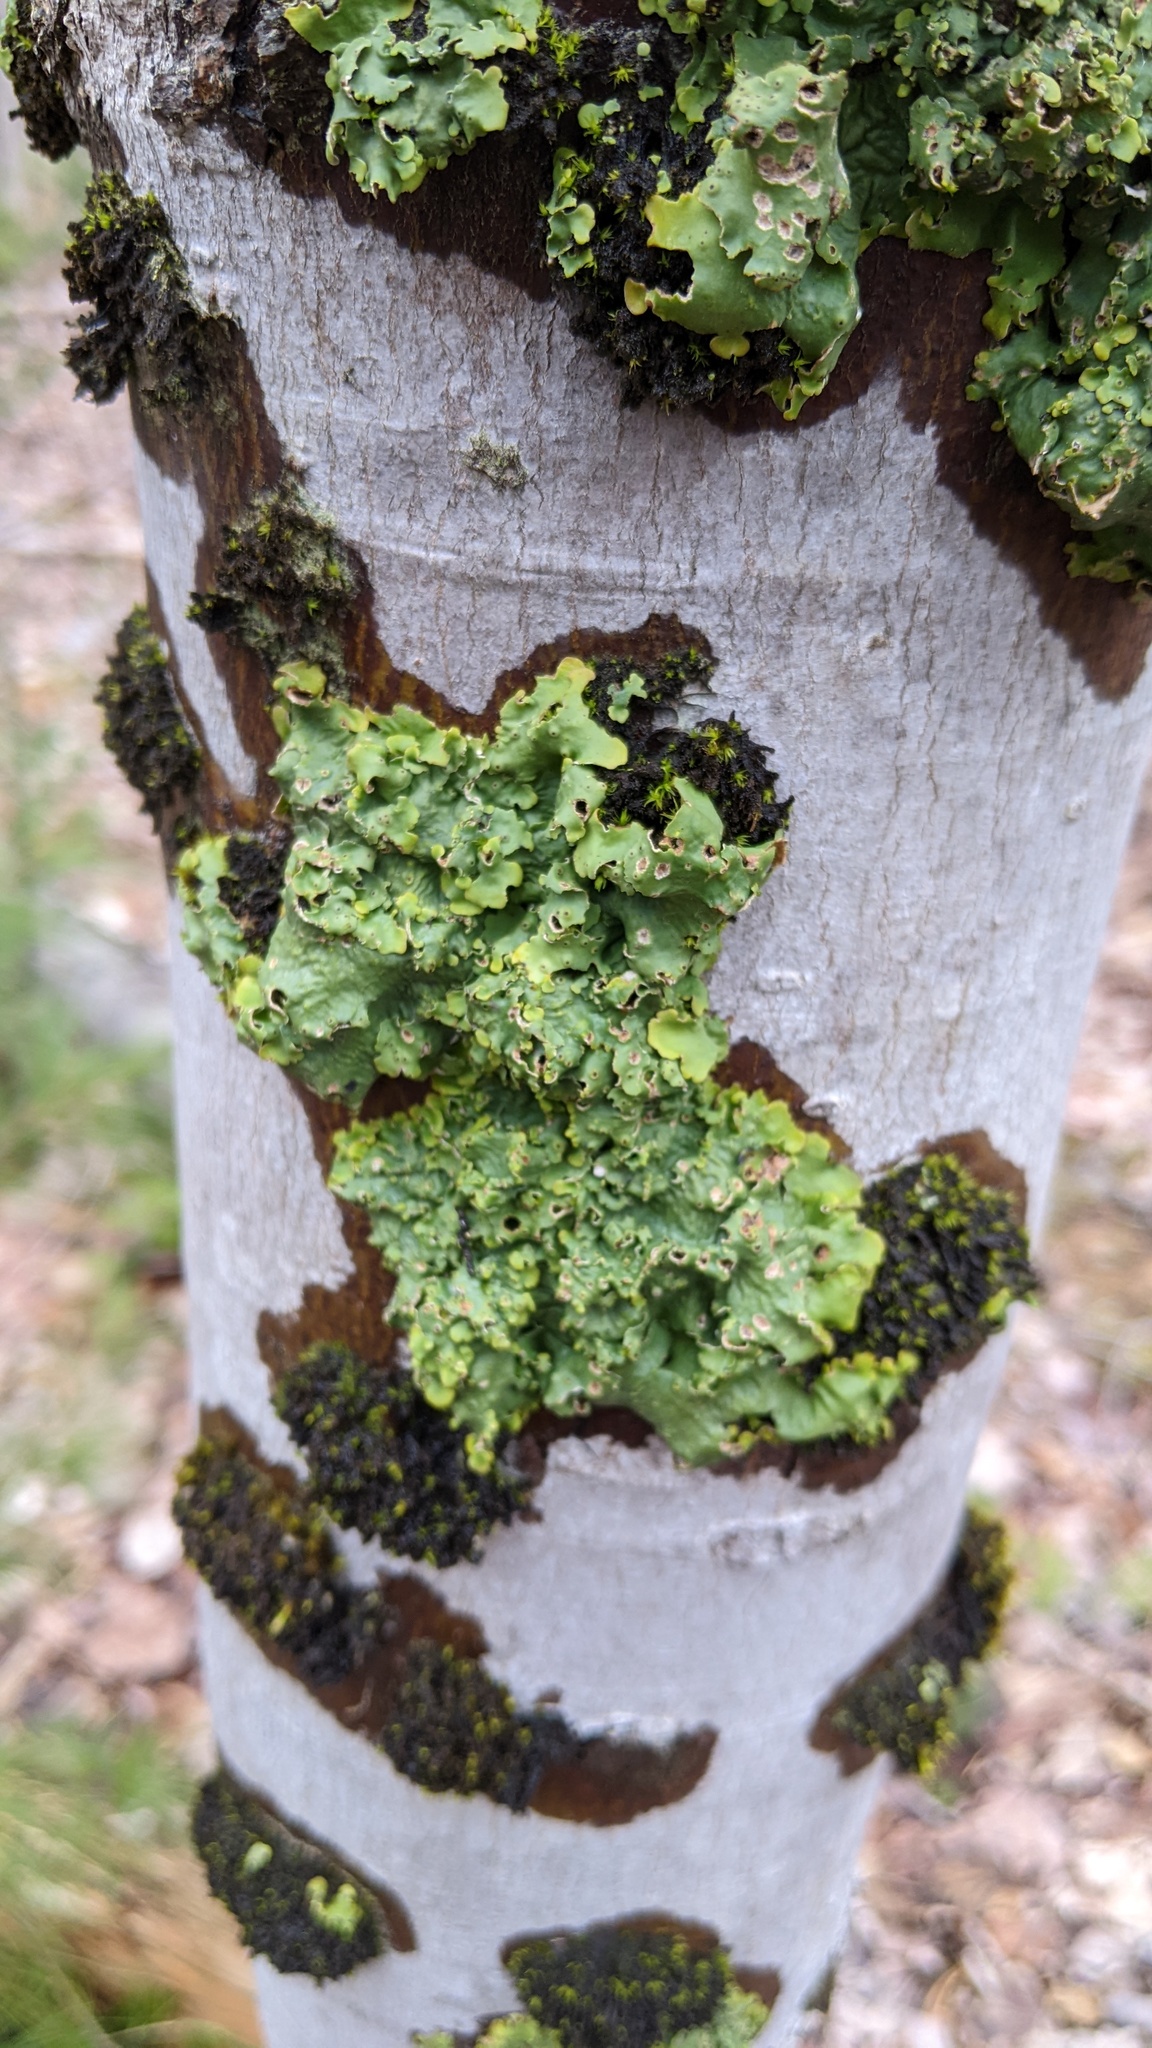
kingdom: Fungi
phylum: Ascomycota
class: Lecanoromycetes
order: Peltigerales
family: Lobariaceae
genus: Ricasolia
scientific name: Ricasolia quercizans
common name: Smooth lungwort
